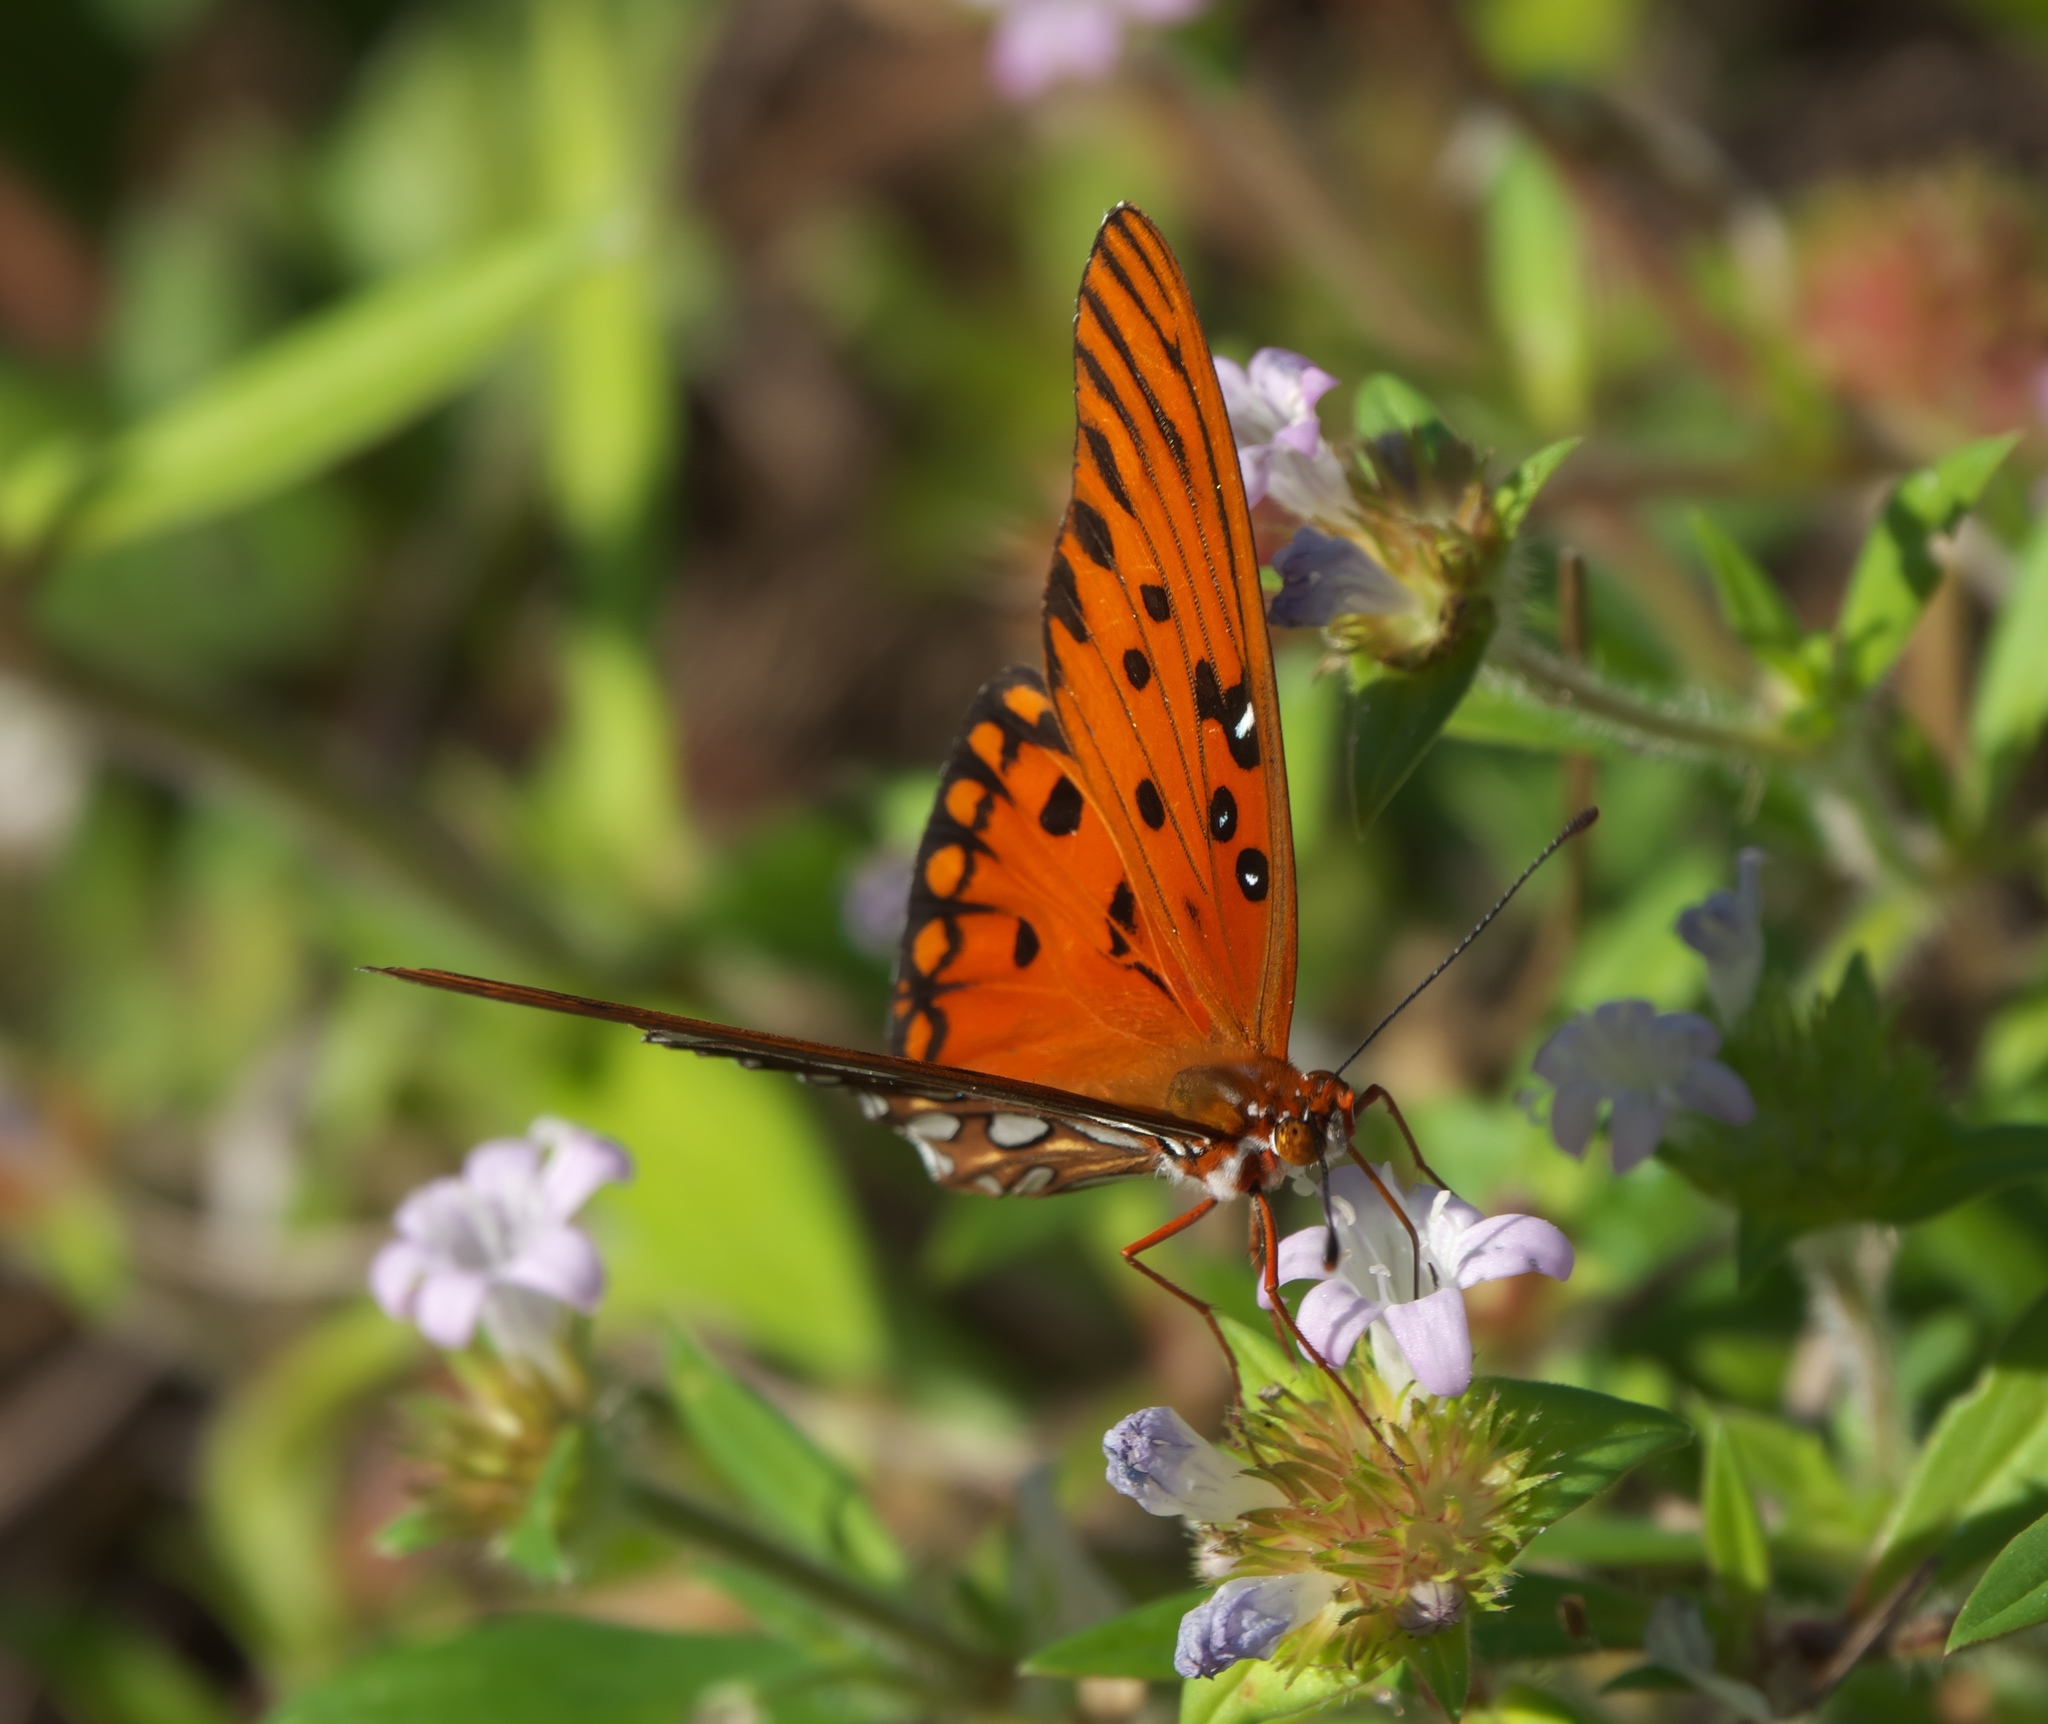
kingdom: Animalia
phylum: Arthropoda
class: Insecta
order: Lepidoptera
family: Nymphalidae
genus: Dione
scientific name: Dione vanillae
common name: Gulf fritillary
